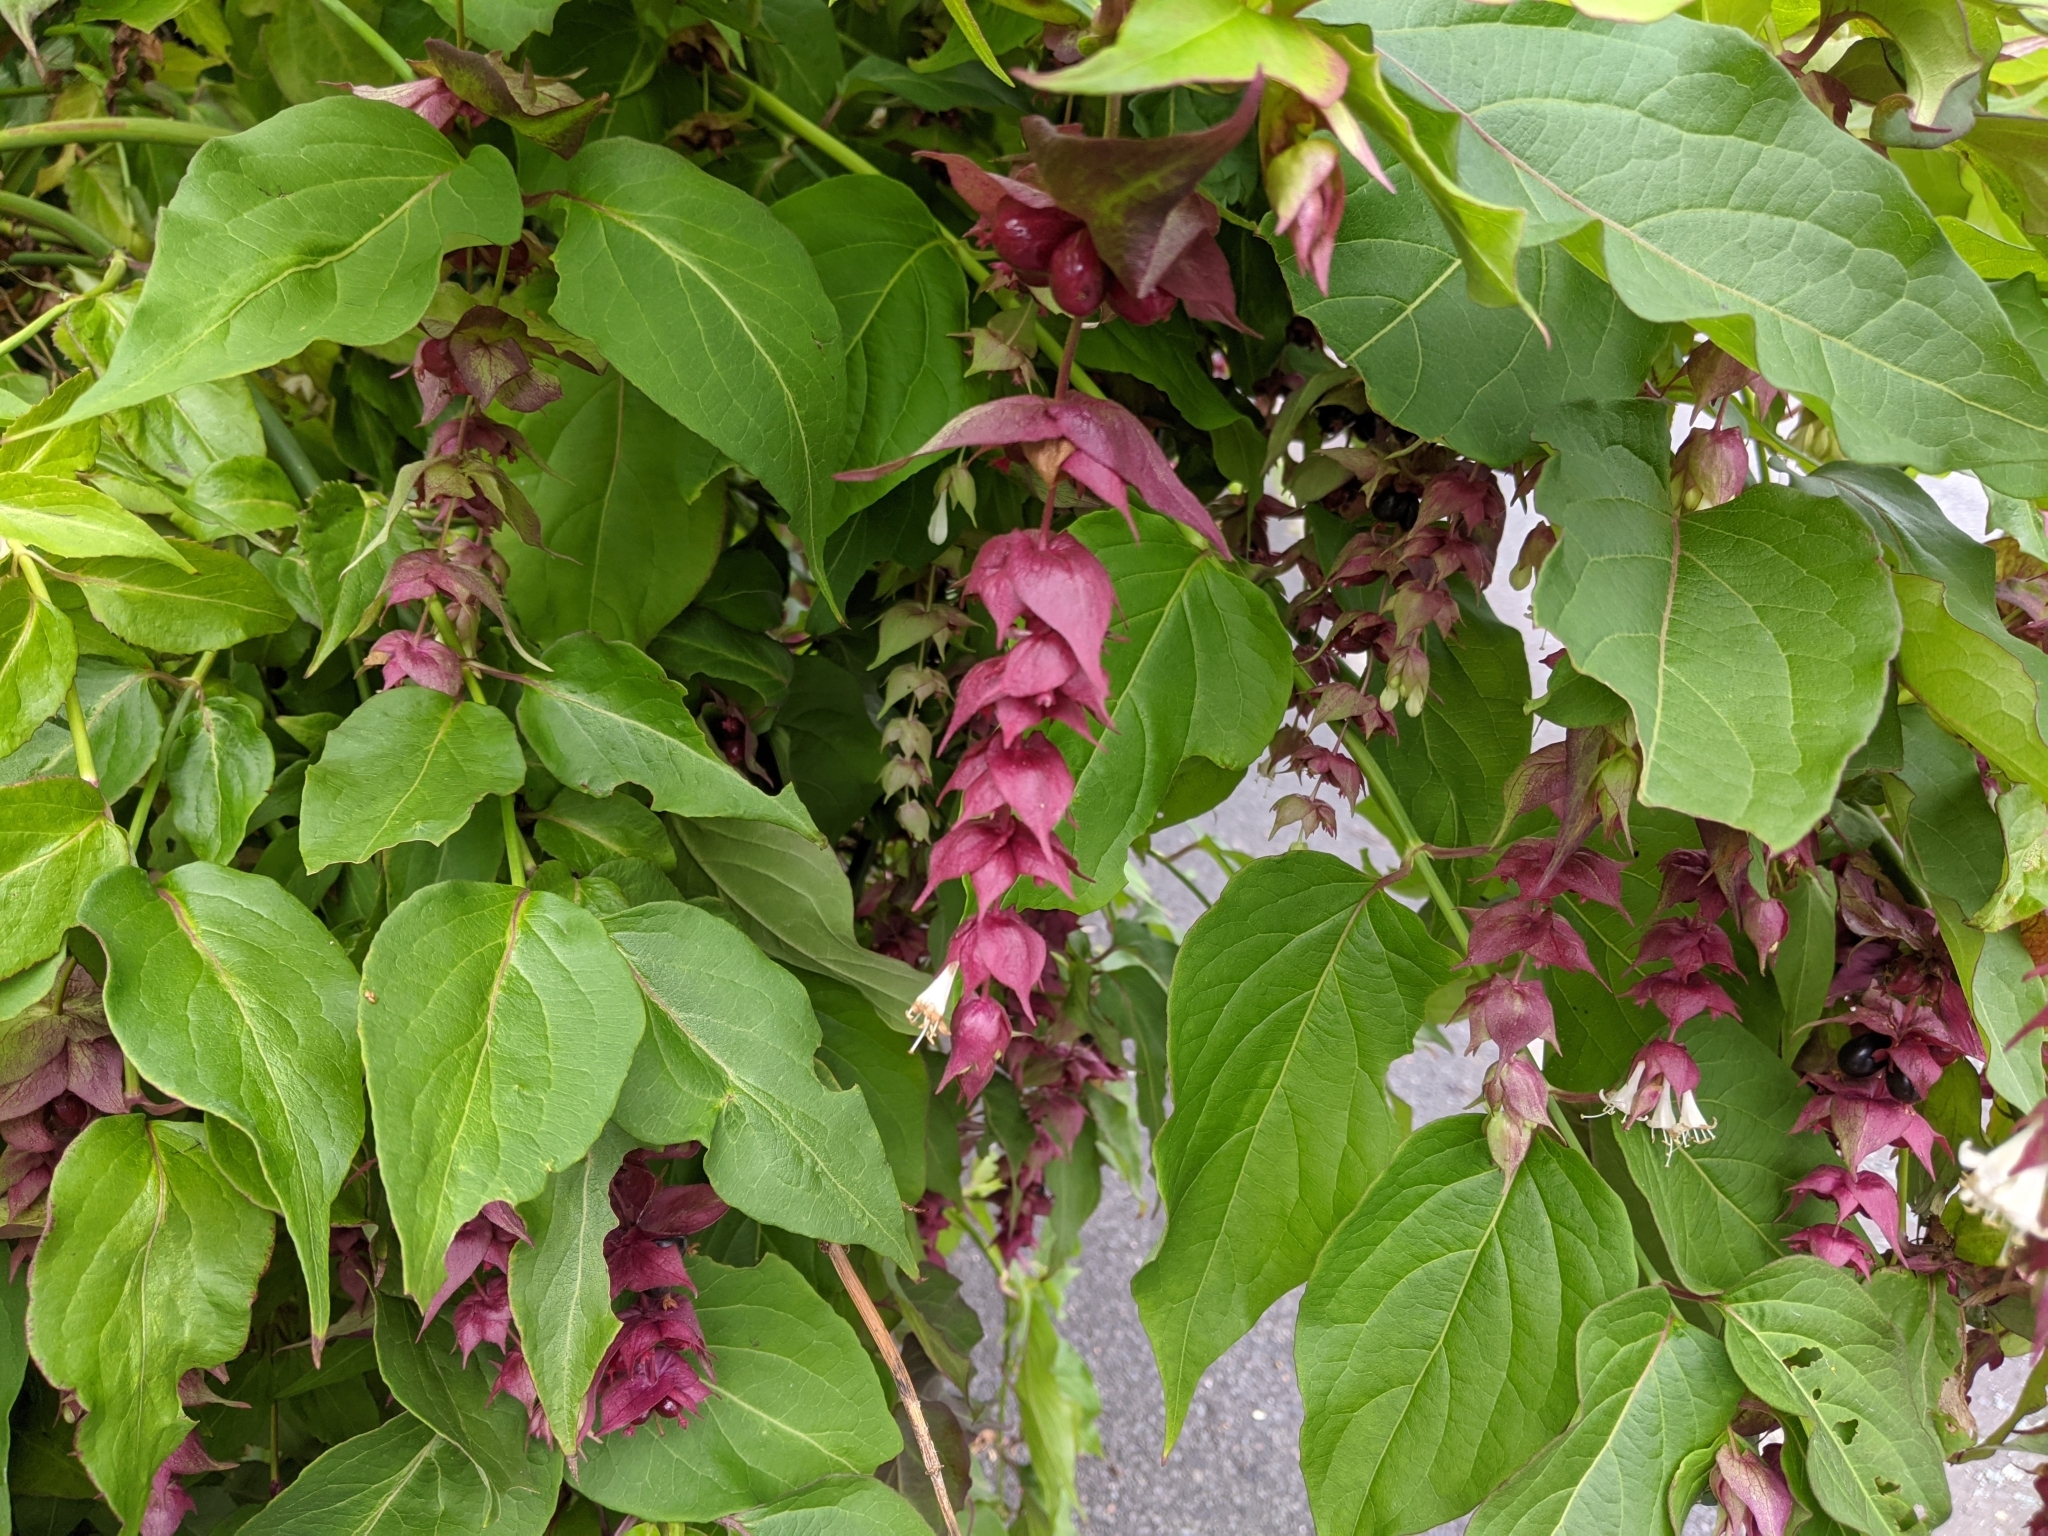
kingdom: Plantae
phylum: Tracheophyta
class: Magnoliopsida
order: Dipsacales
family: Caprifoliaceae
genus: Leycesteria
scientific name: Leycesteria formosa
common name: Himalayan honeysuckle
